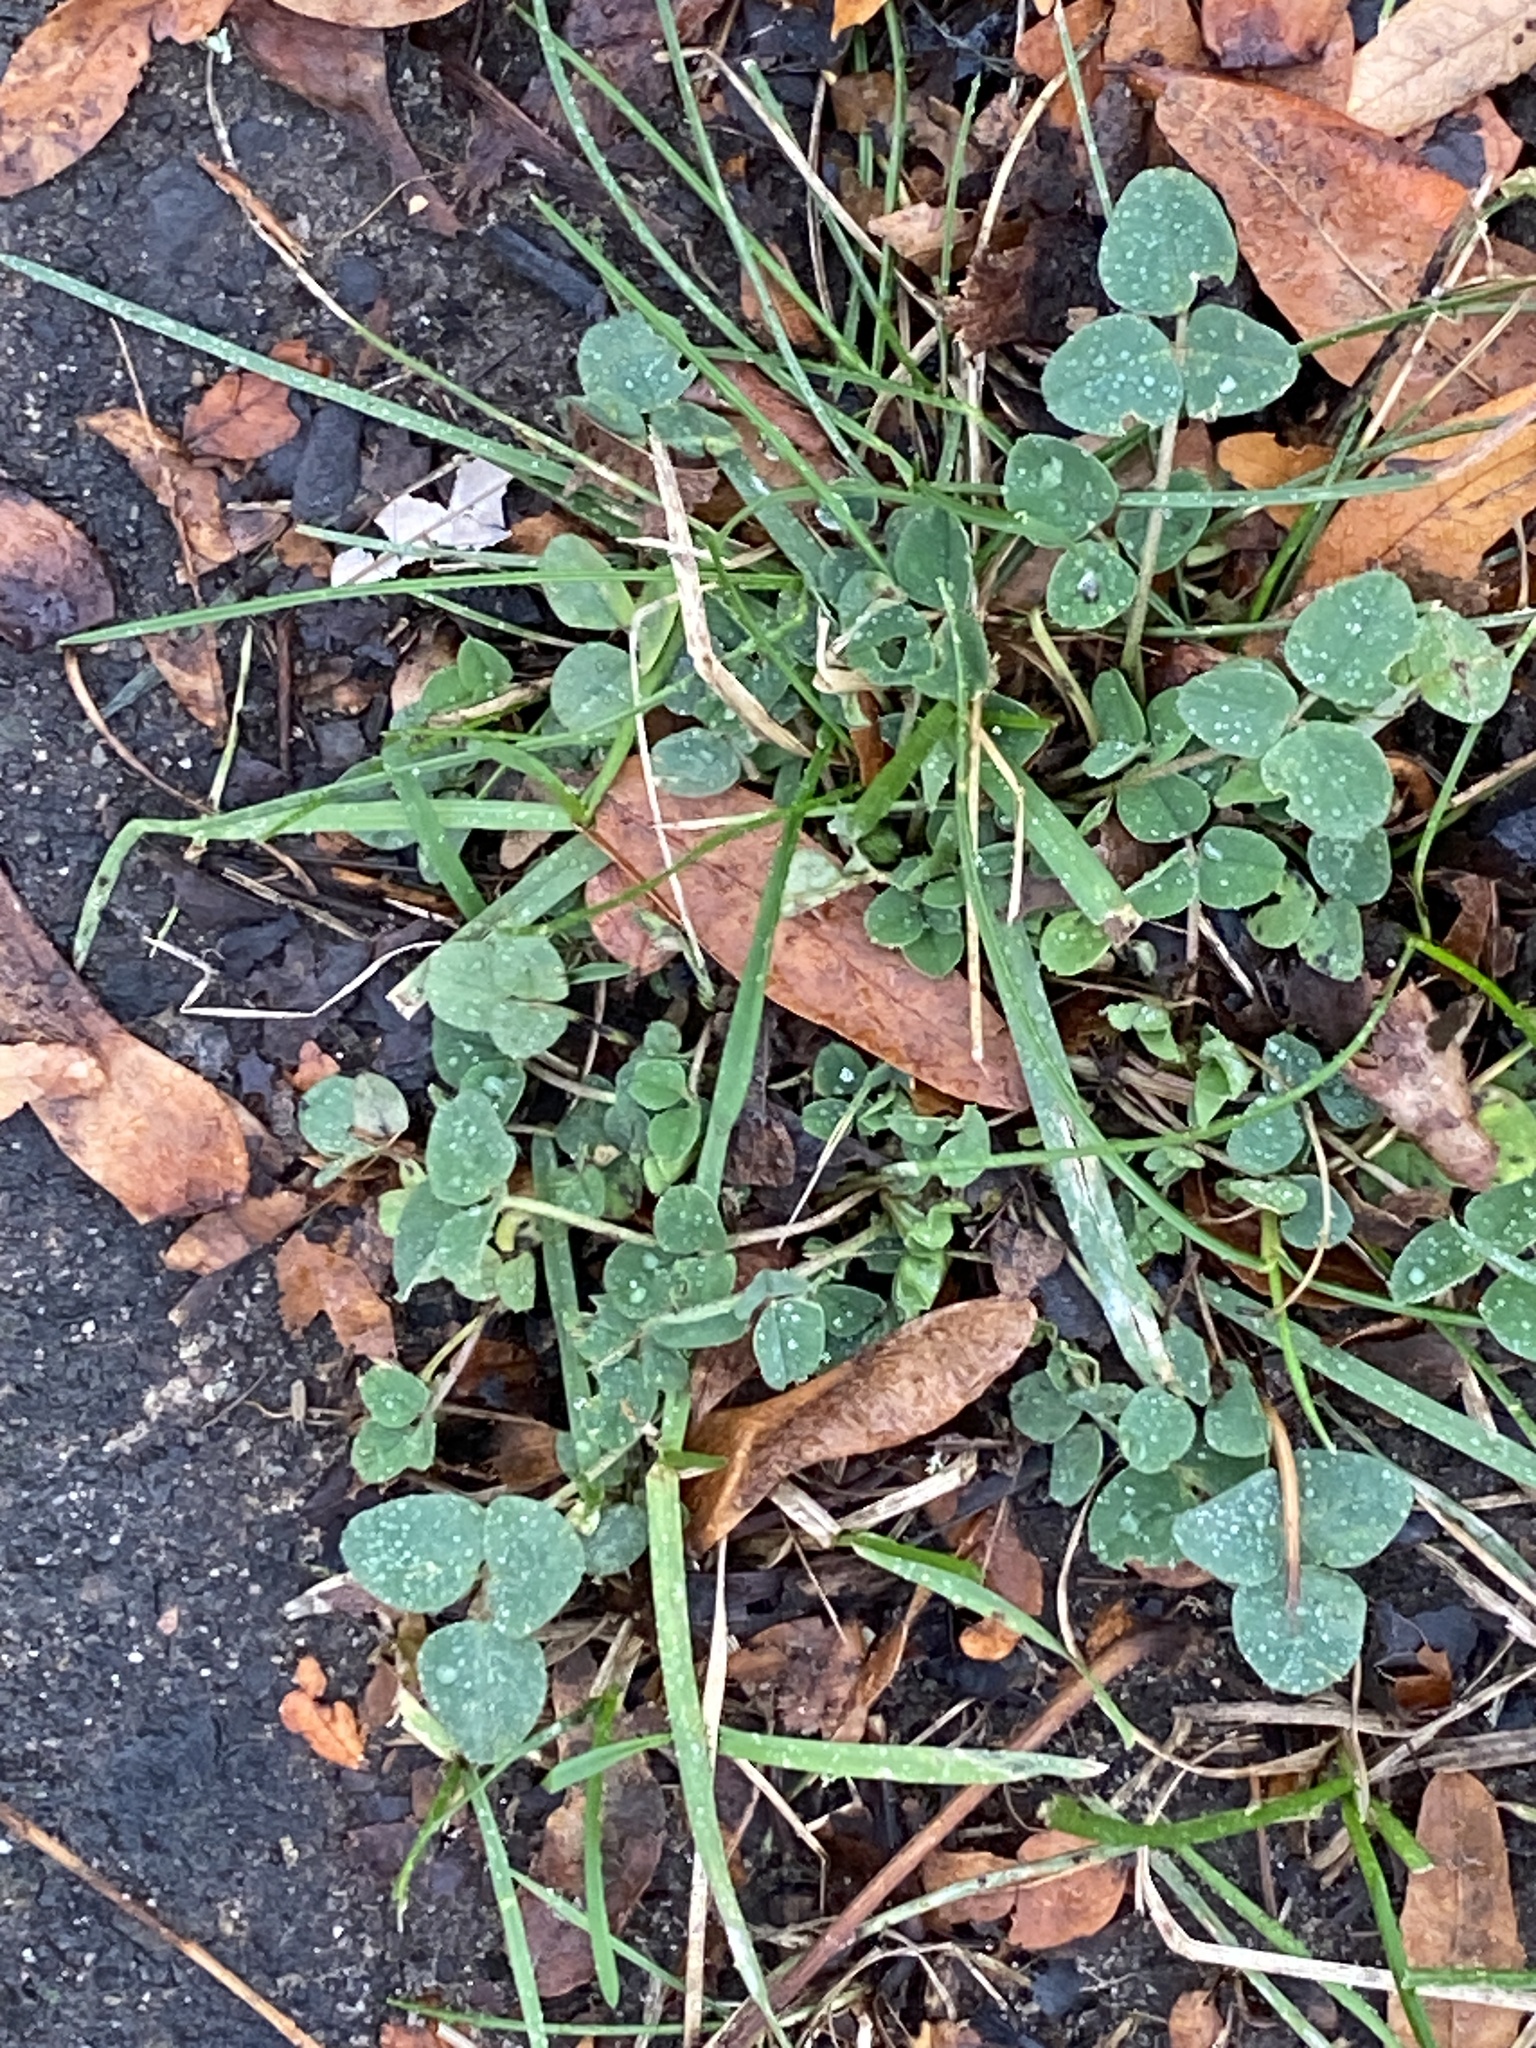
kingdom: Plantae
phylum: Tracheophyta
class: Magnoliopsida
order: Fabales
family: Fabaceae
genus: Medicago
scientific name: Medicago lupulina
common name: Black medick
